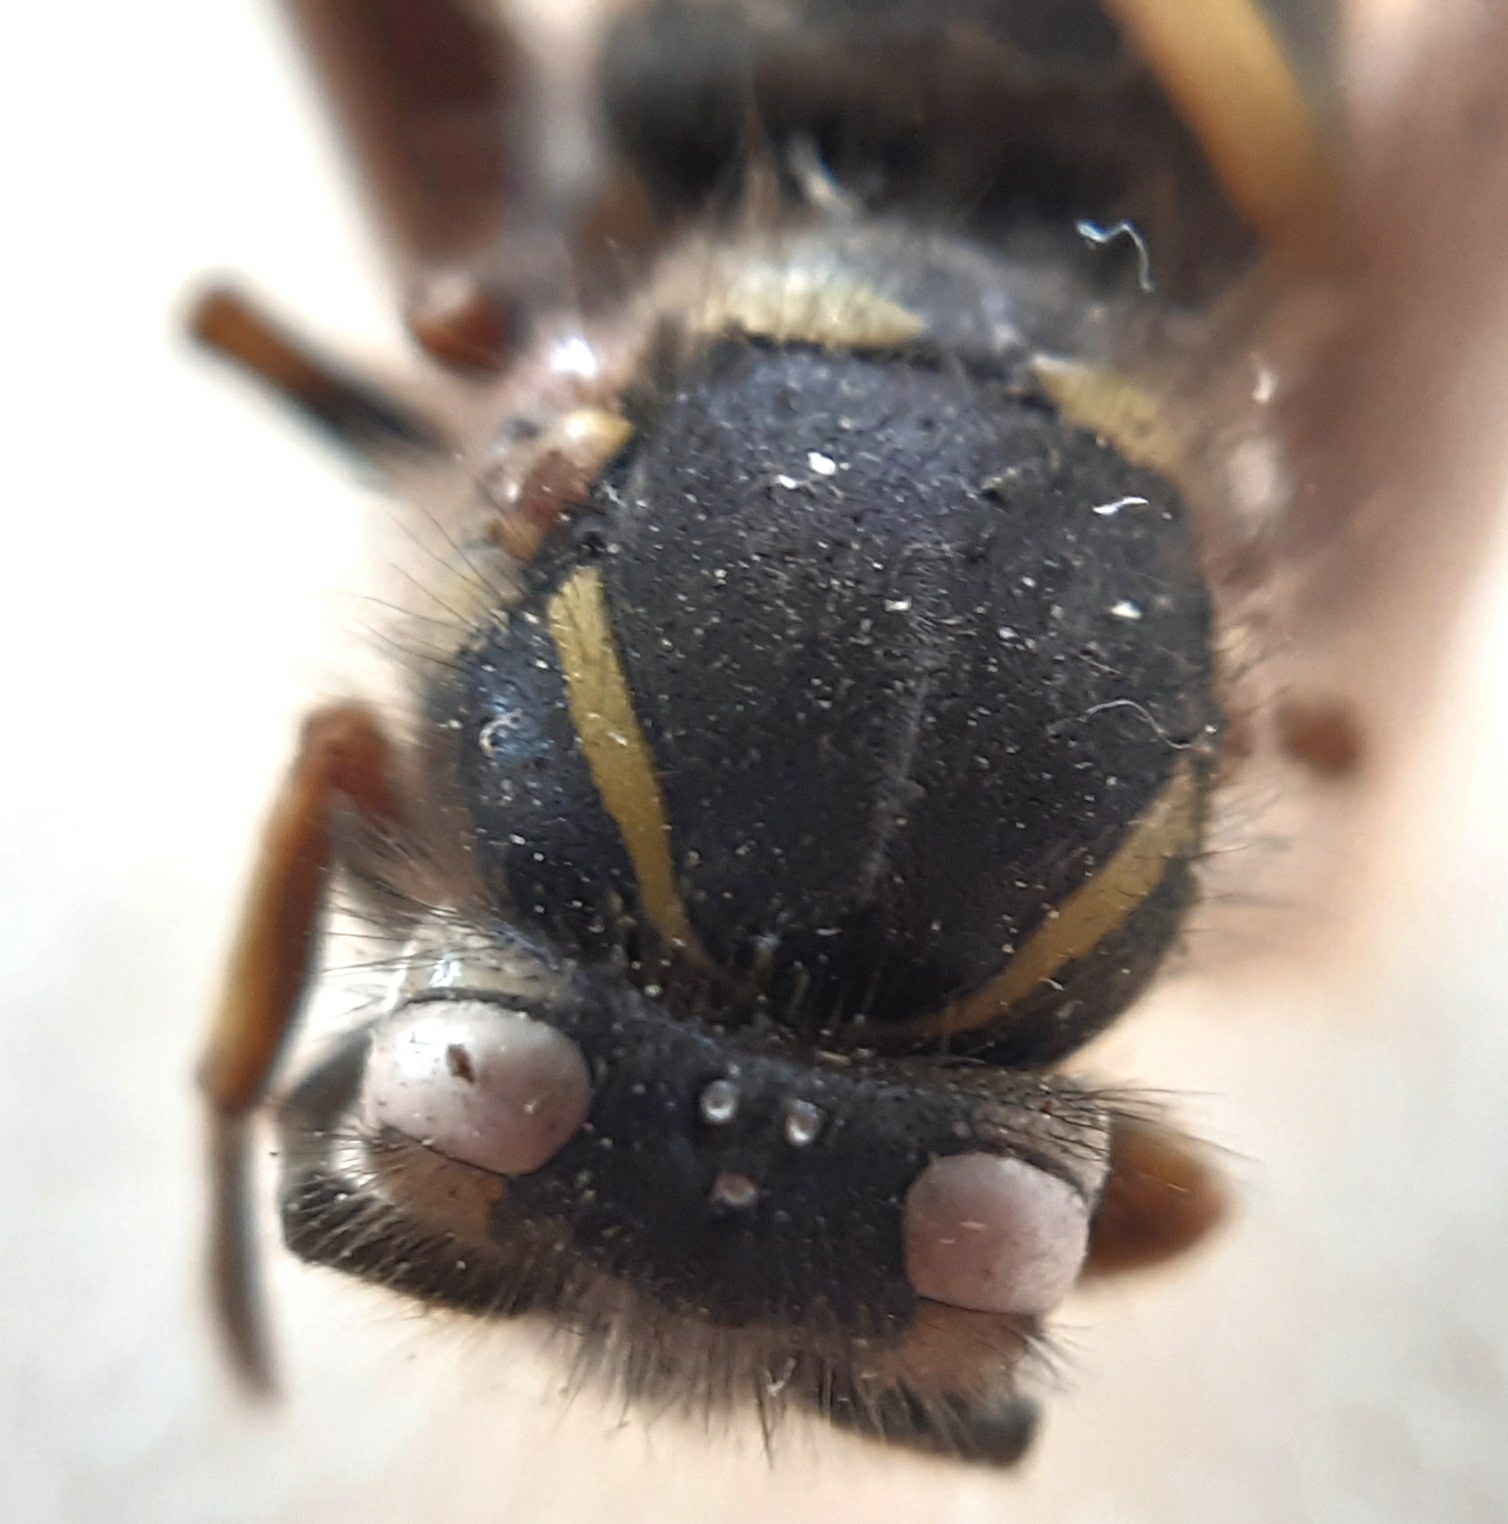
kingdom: Animalia
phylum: Arthropoda
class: Insecta
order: Hymenoptera
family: Vespidae
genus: Vespula
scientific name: Vespula vulgaris
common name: Common wasp
